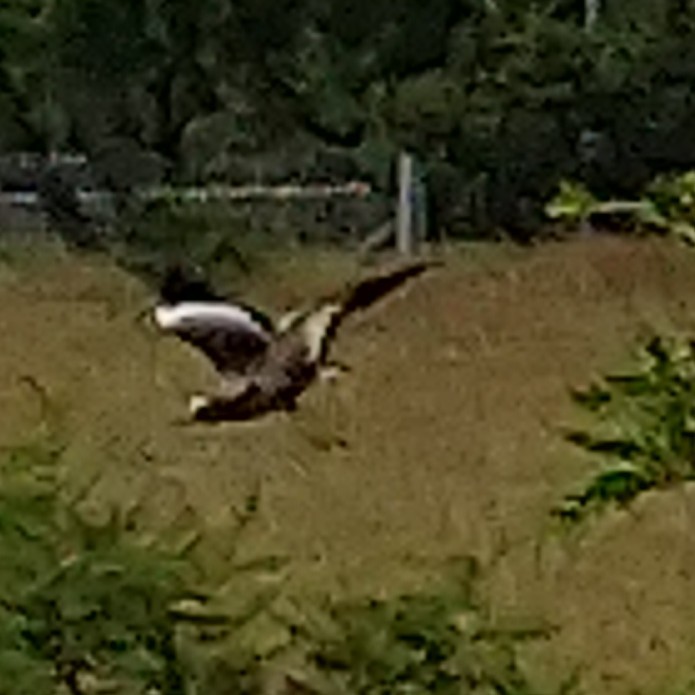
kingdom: Animalia
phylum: Chordata
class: Aves
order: Charadriiformes
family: Charadriidae
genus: Vanellus
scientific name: Vanellus senegallus
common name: African wattled lapwing
